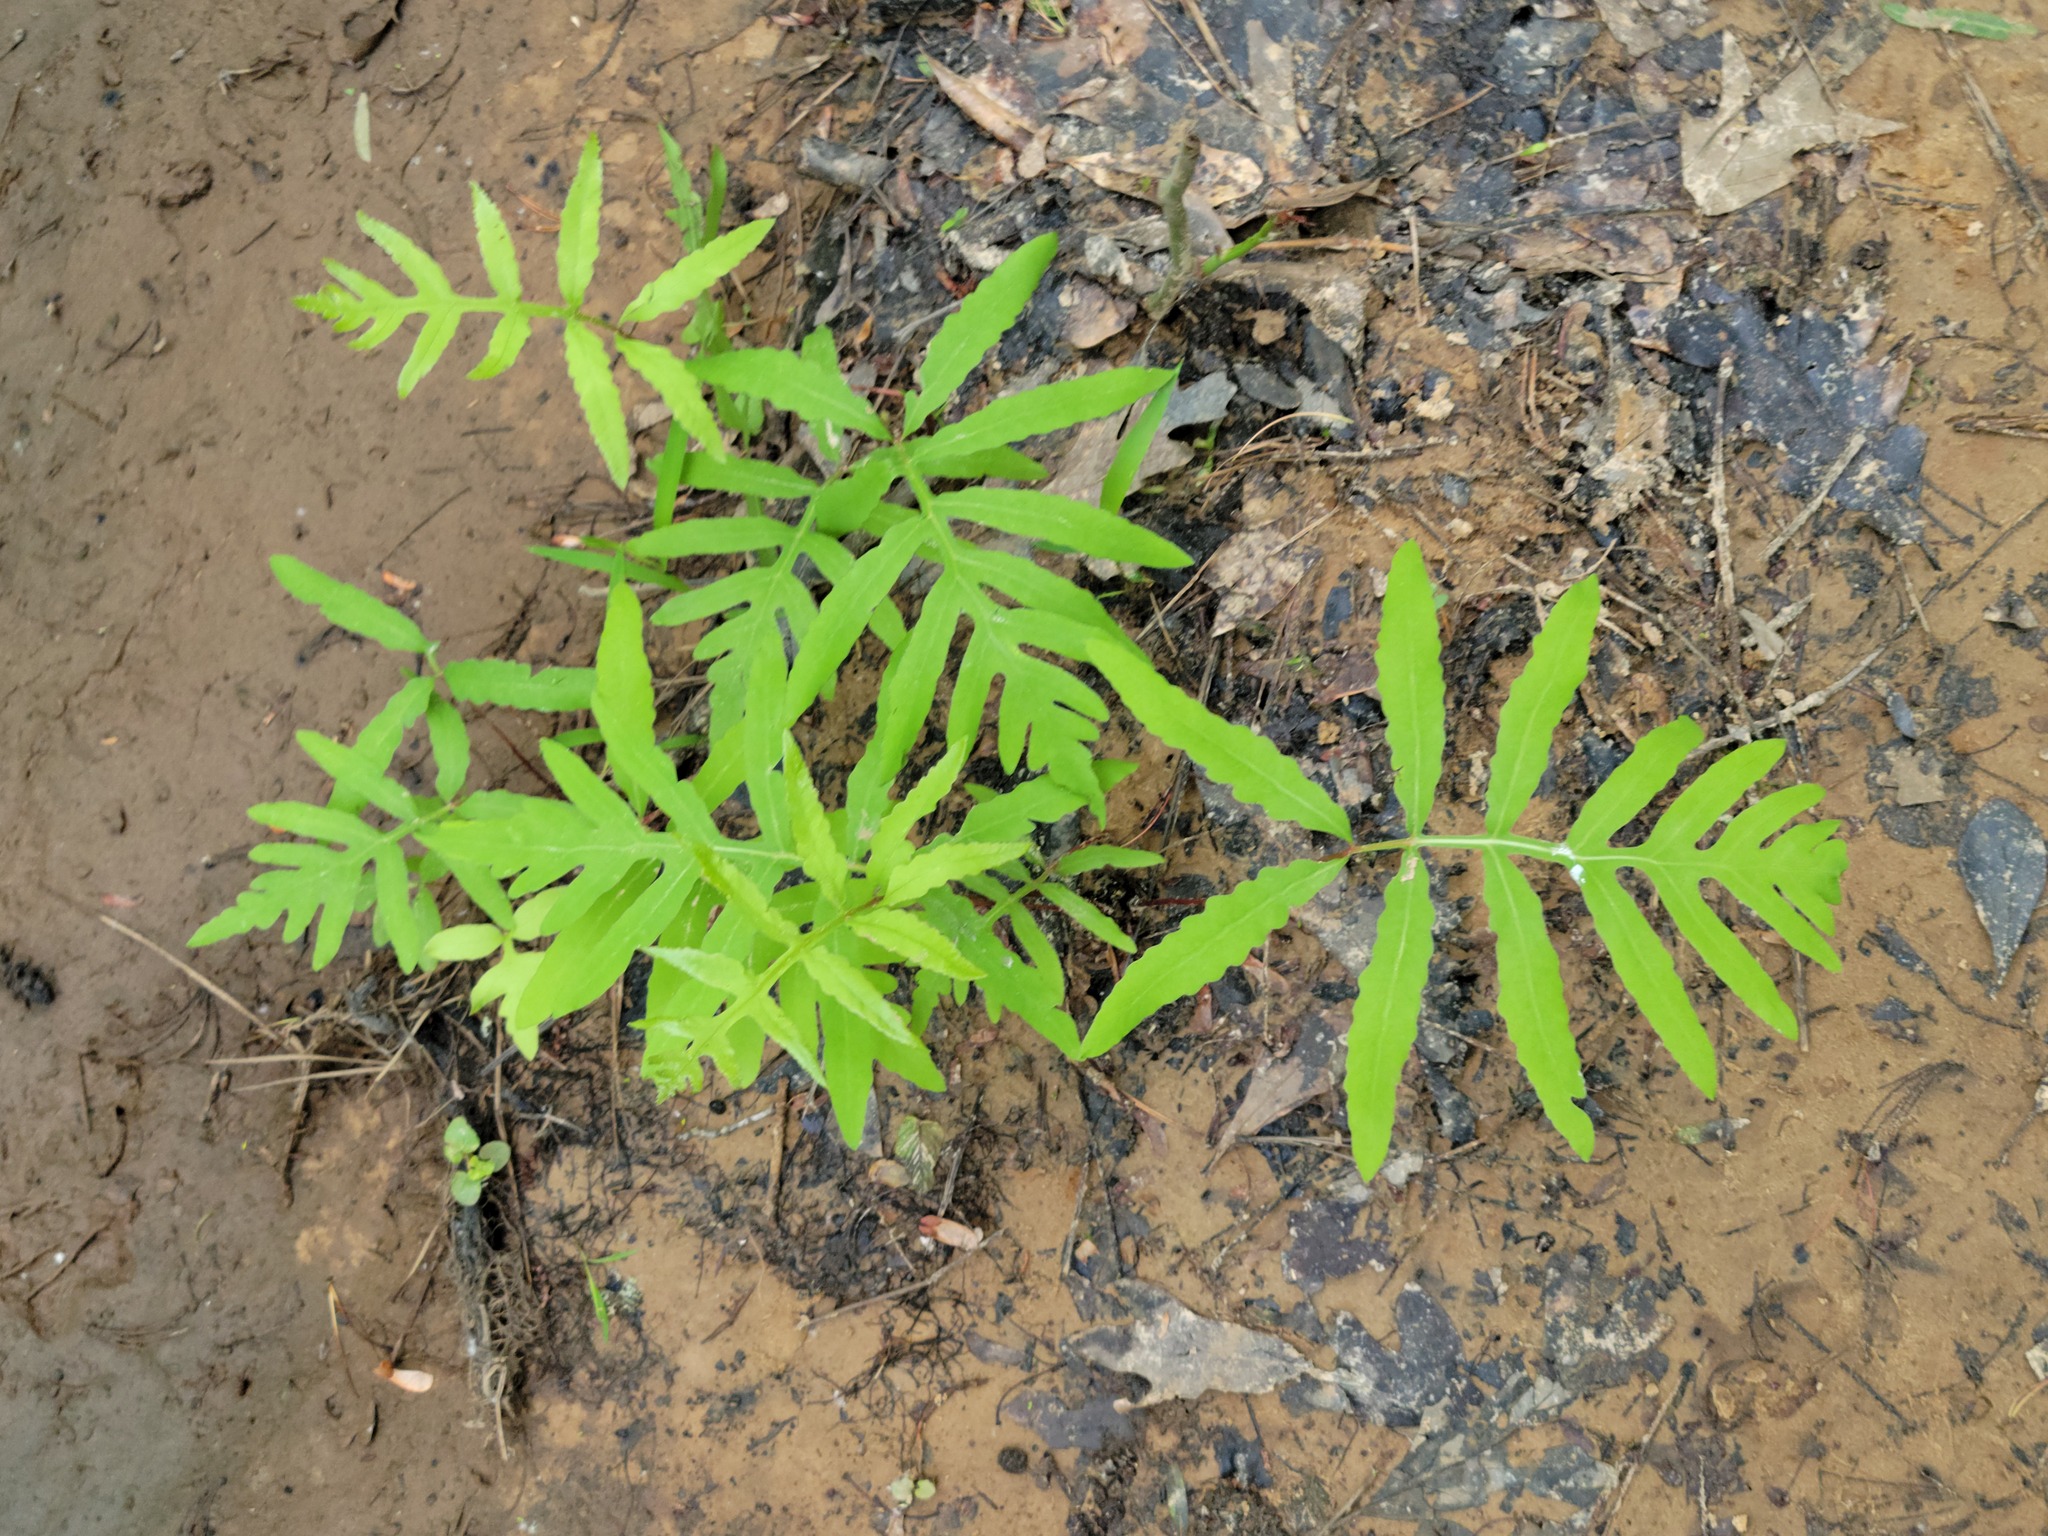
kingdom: Plantae
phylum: Tracheophyta
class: Polypodiopsida
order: Polypodiales
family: Onocleaceae
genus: Onoclea
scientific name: Onoclea sensibilis
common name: Sensitive fern
